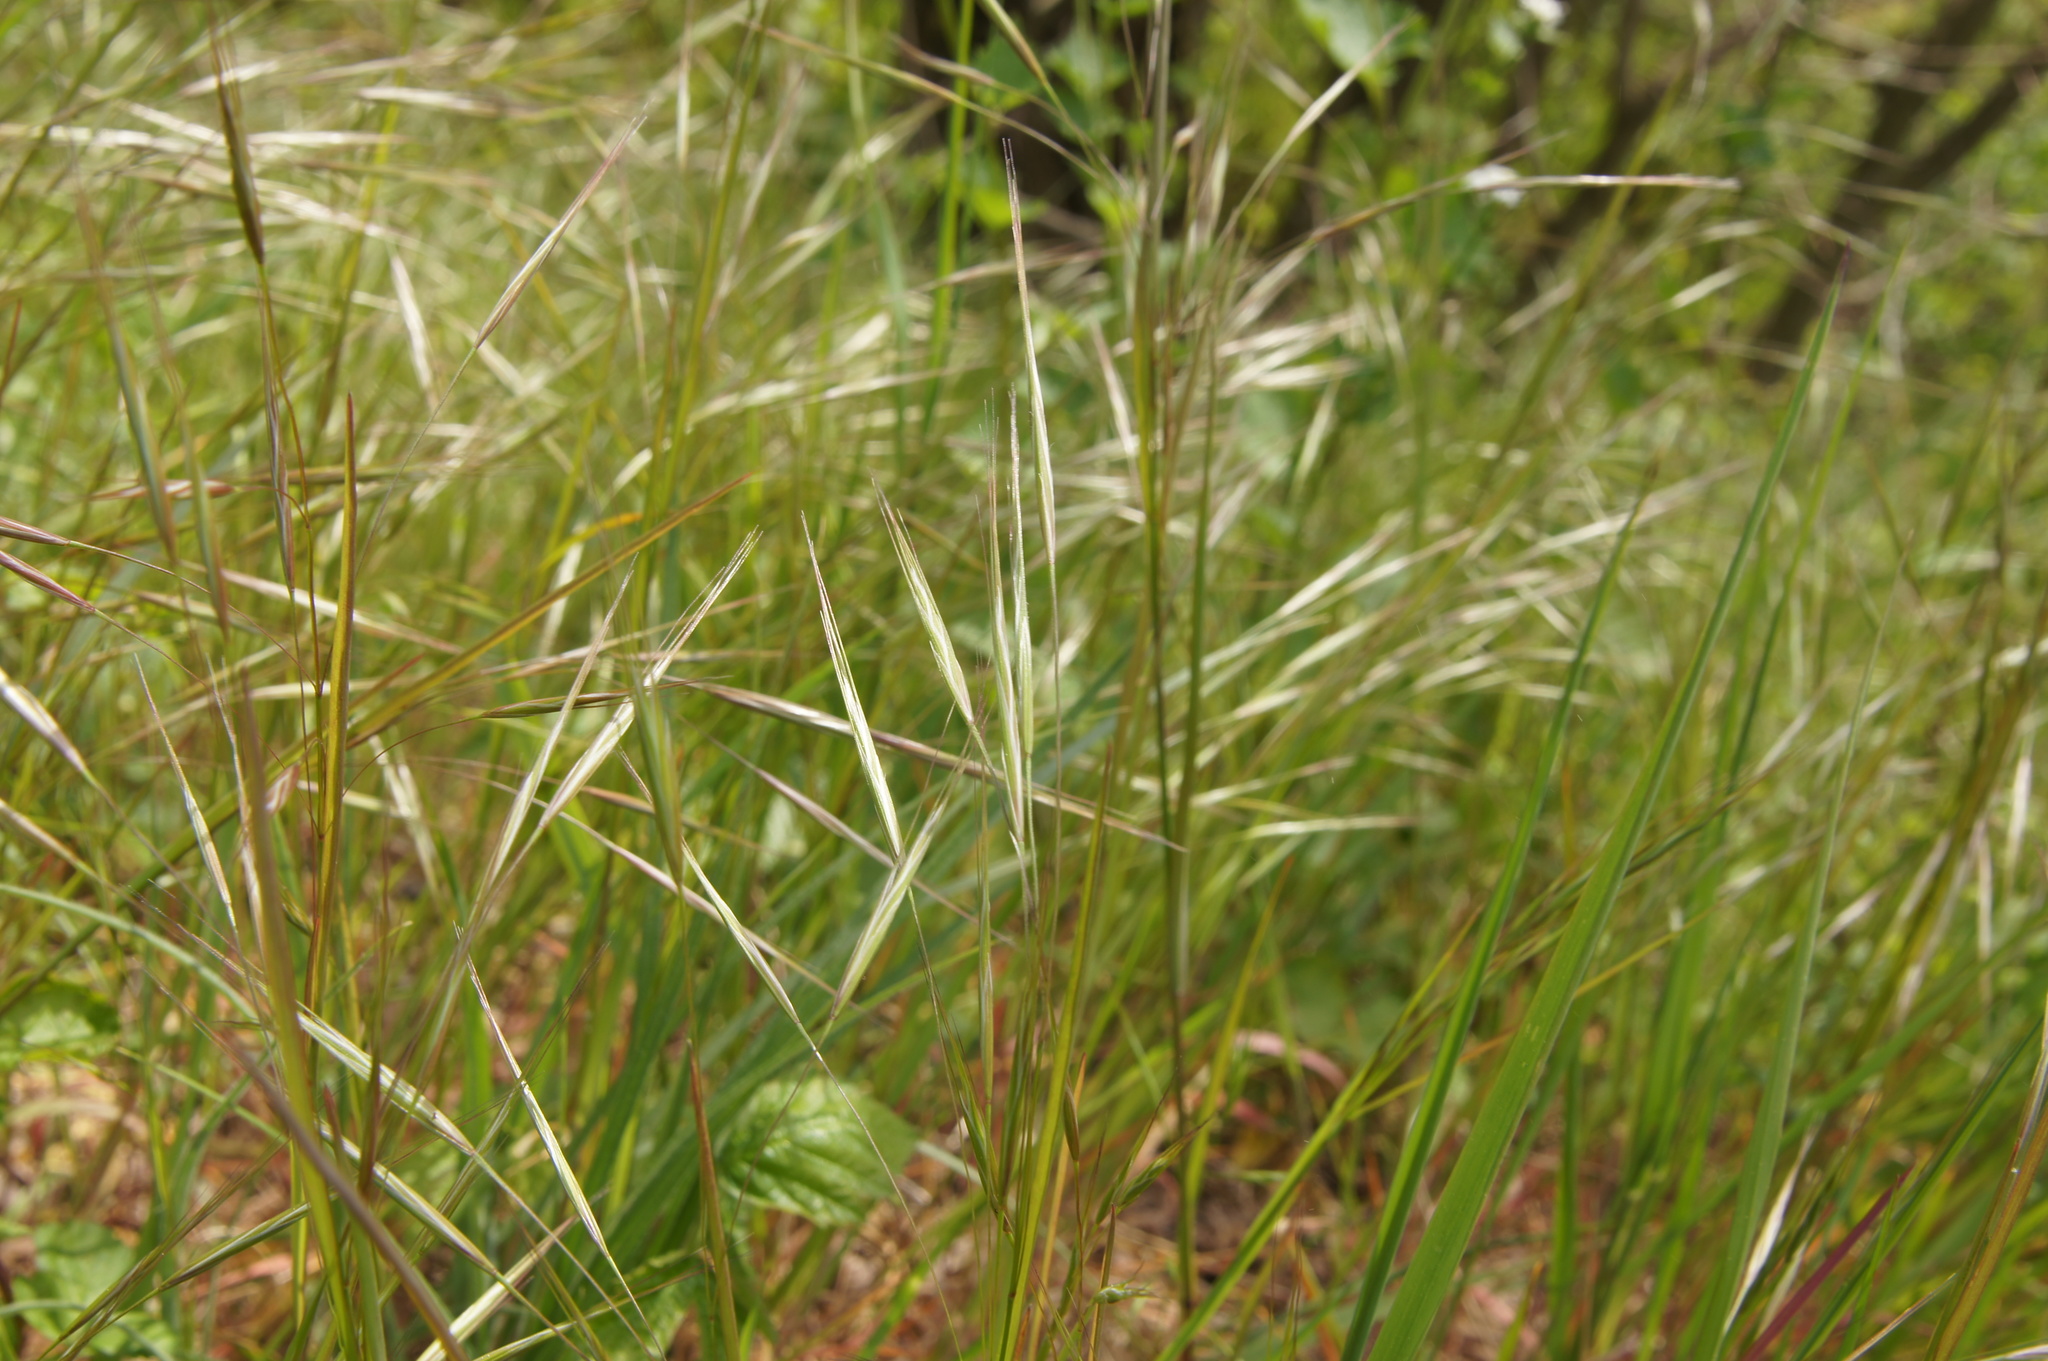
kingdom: Plantae
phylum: Tracheophyta
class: Liliopsida
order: Poales
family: Poaceae
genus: Bromus
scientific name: Bromus sterilis
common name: Poverty brome
